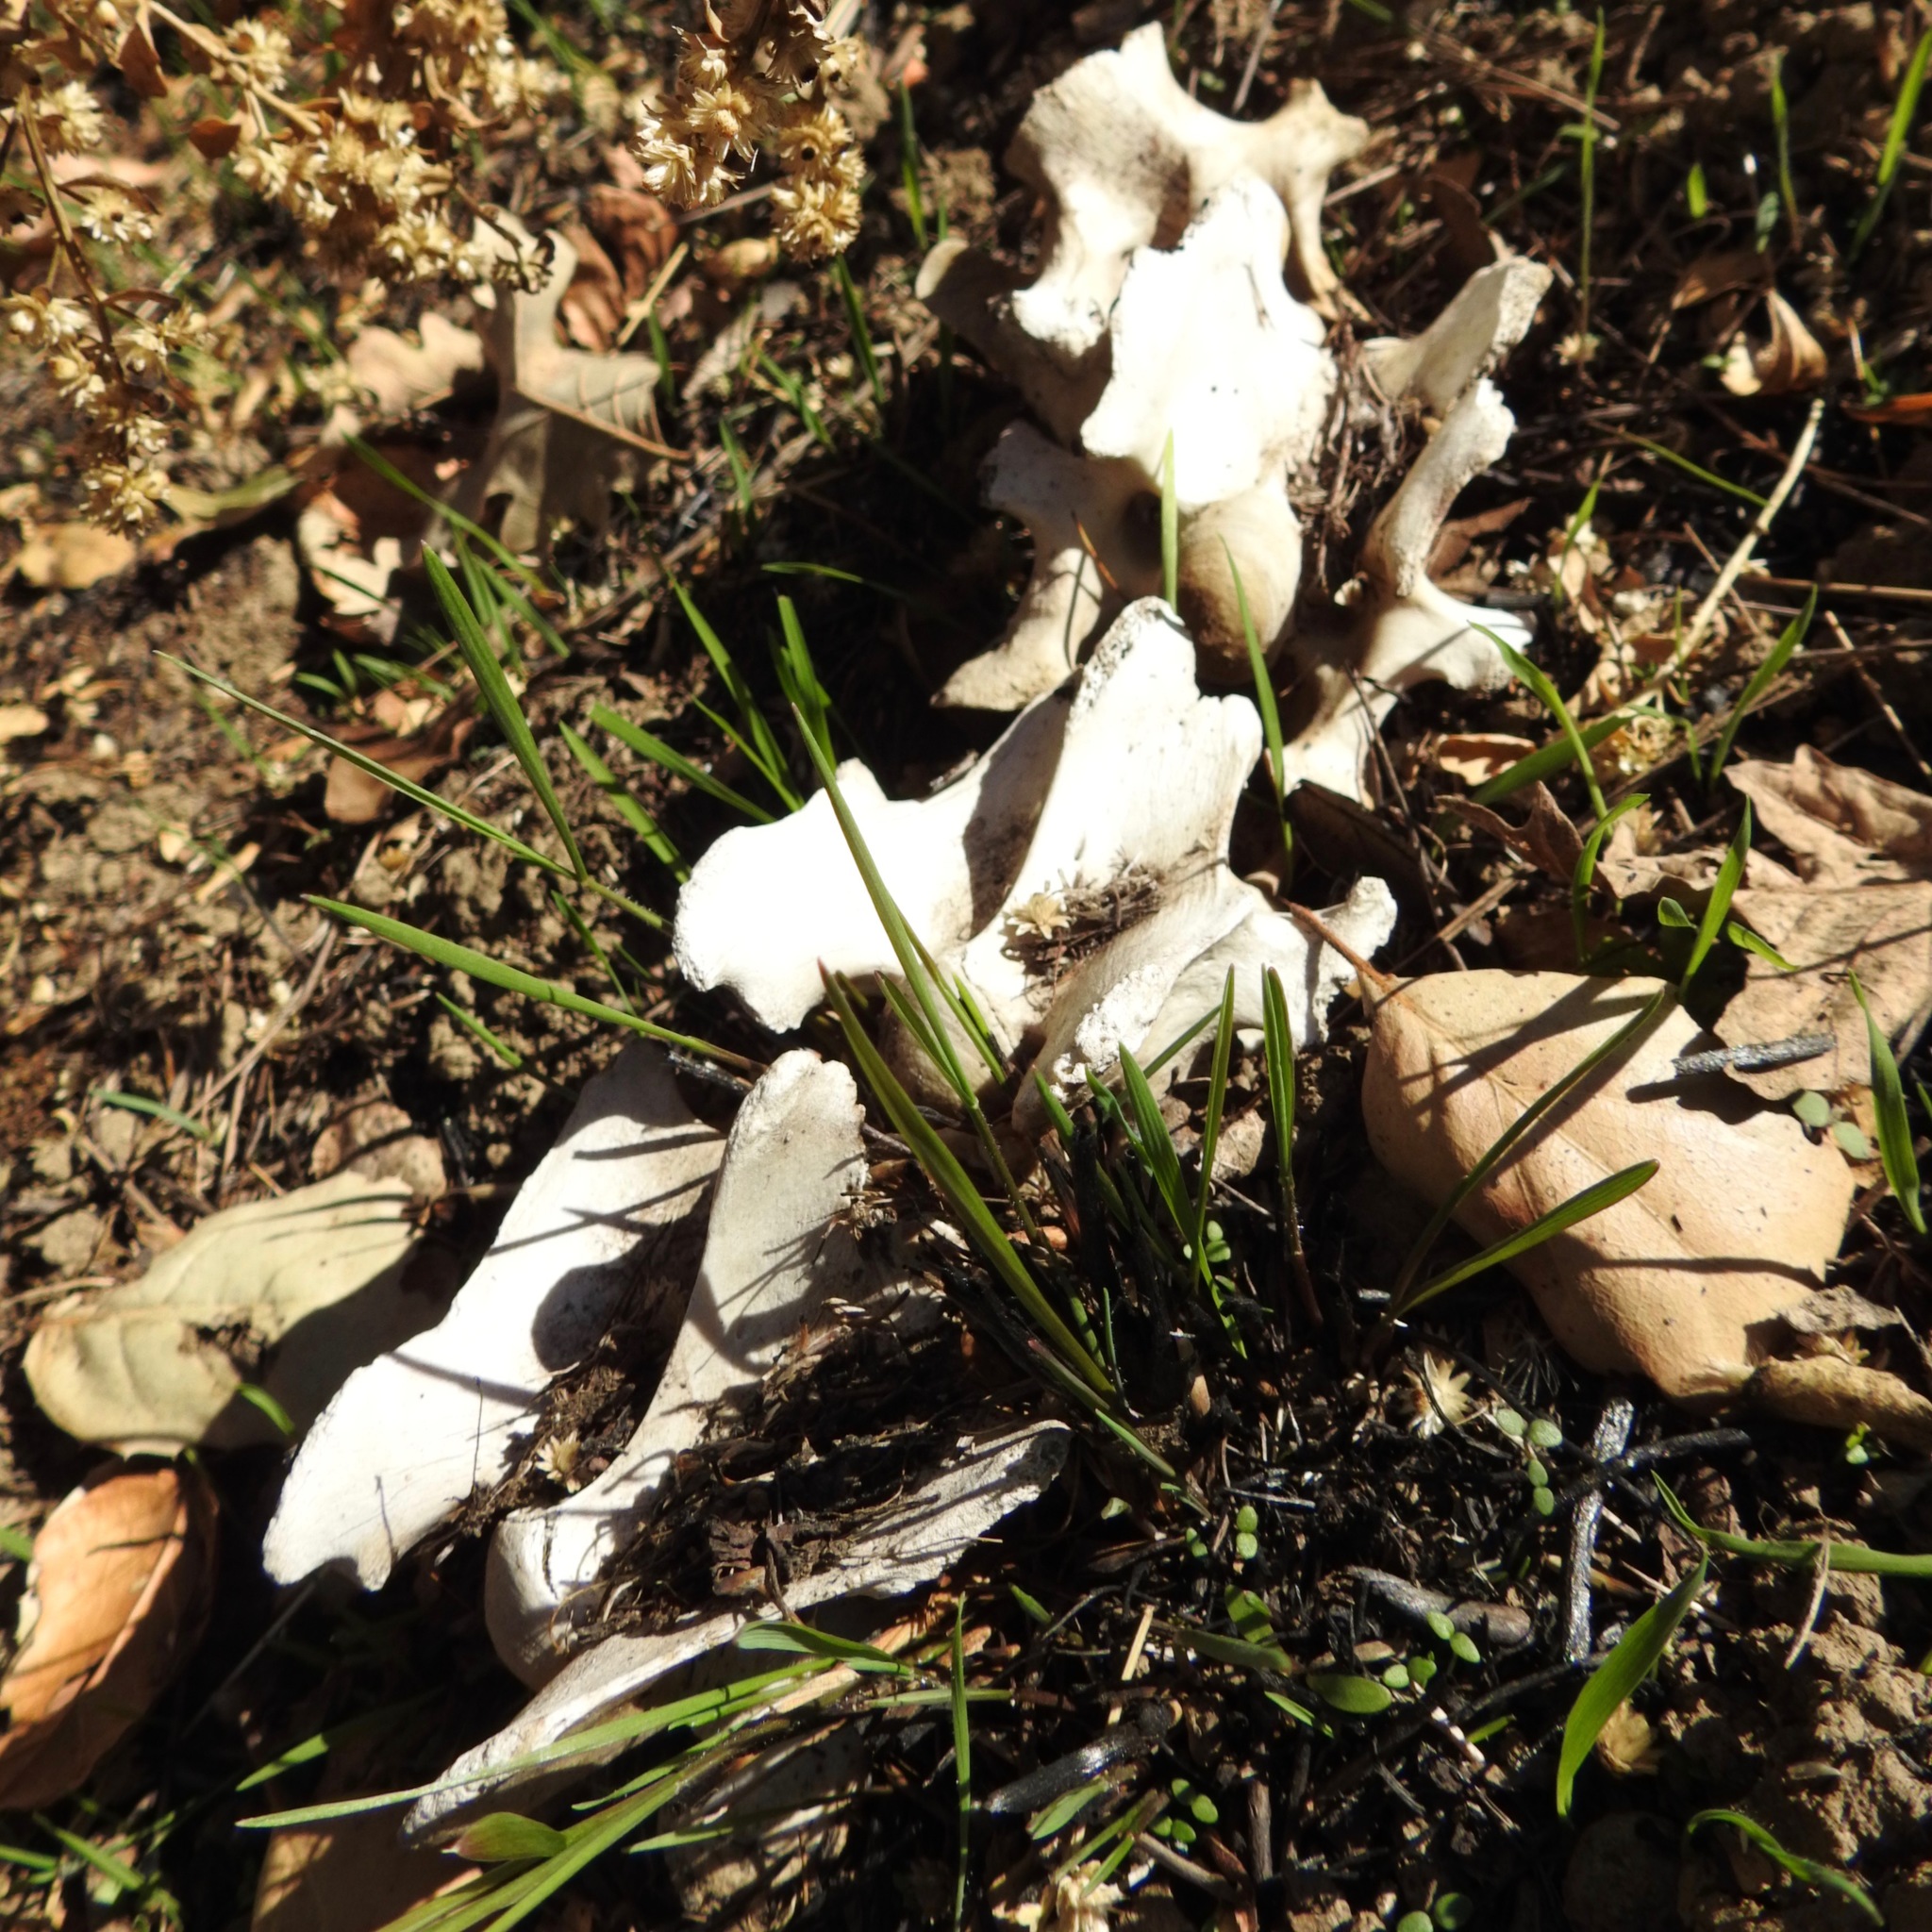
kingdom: Animalia
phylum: Chordata
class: Mammalia
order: Artiodactyla
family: Cervidae
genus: Odocoileus
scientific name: Odocoileus hemionus
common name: Mule deer
